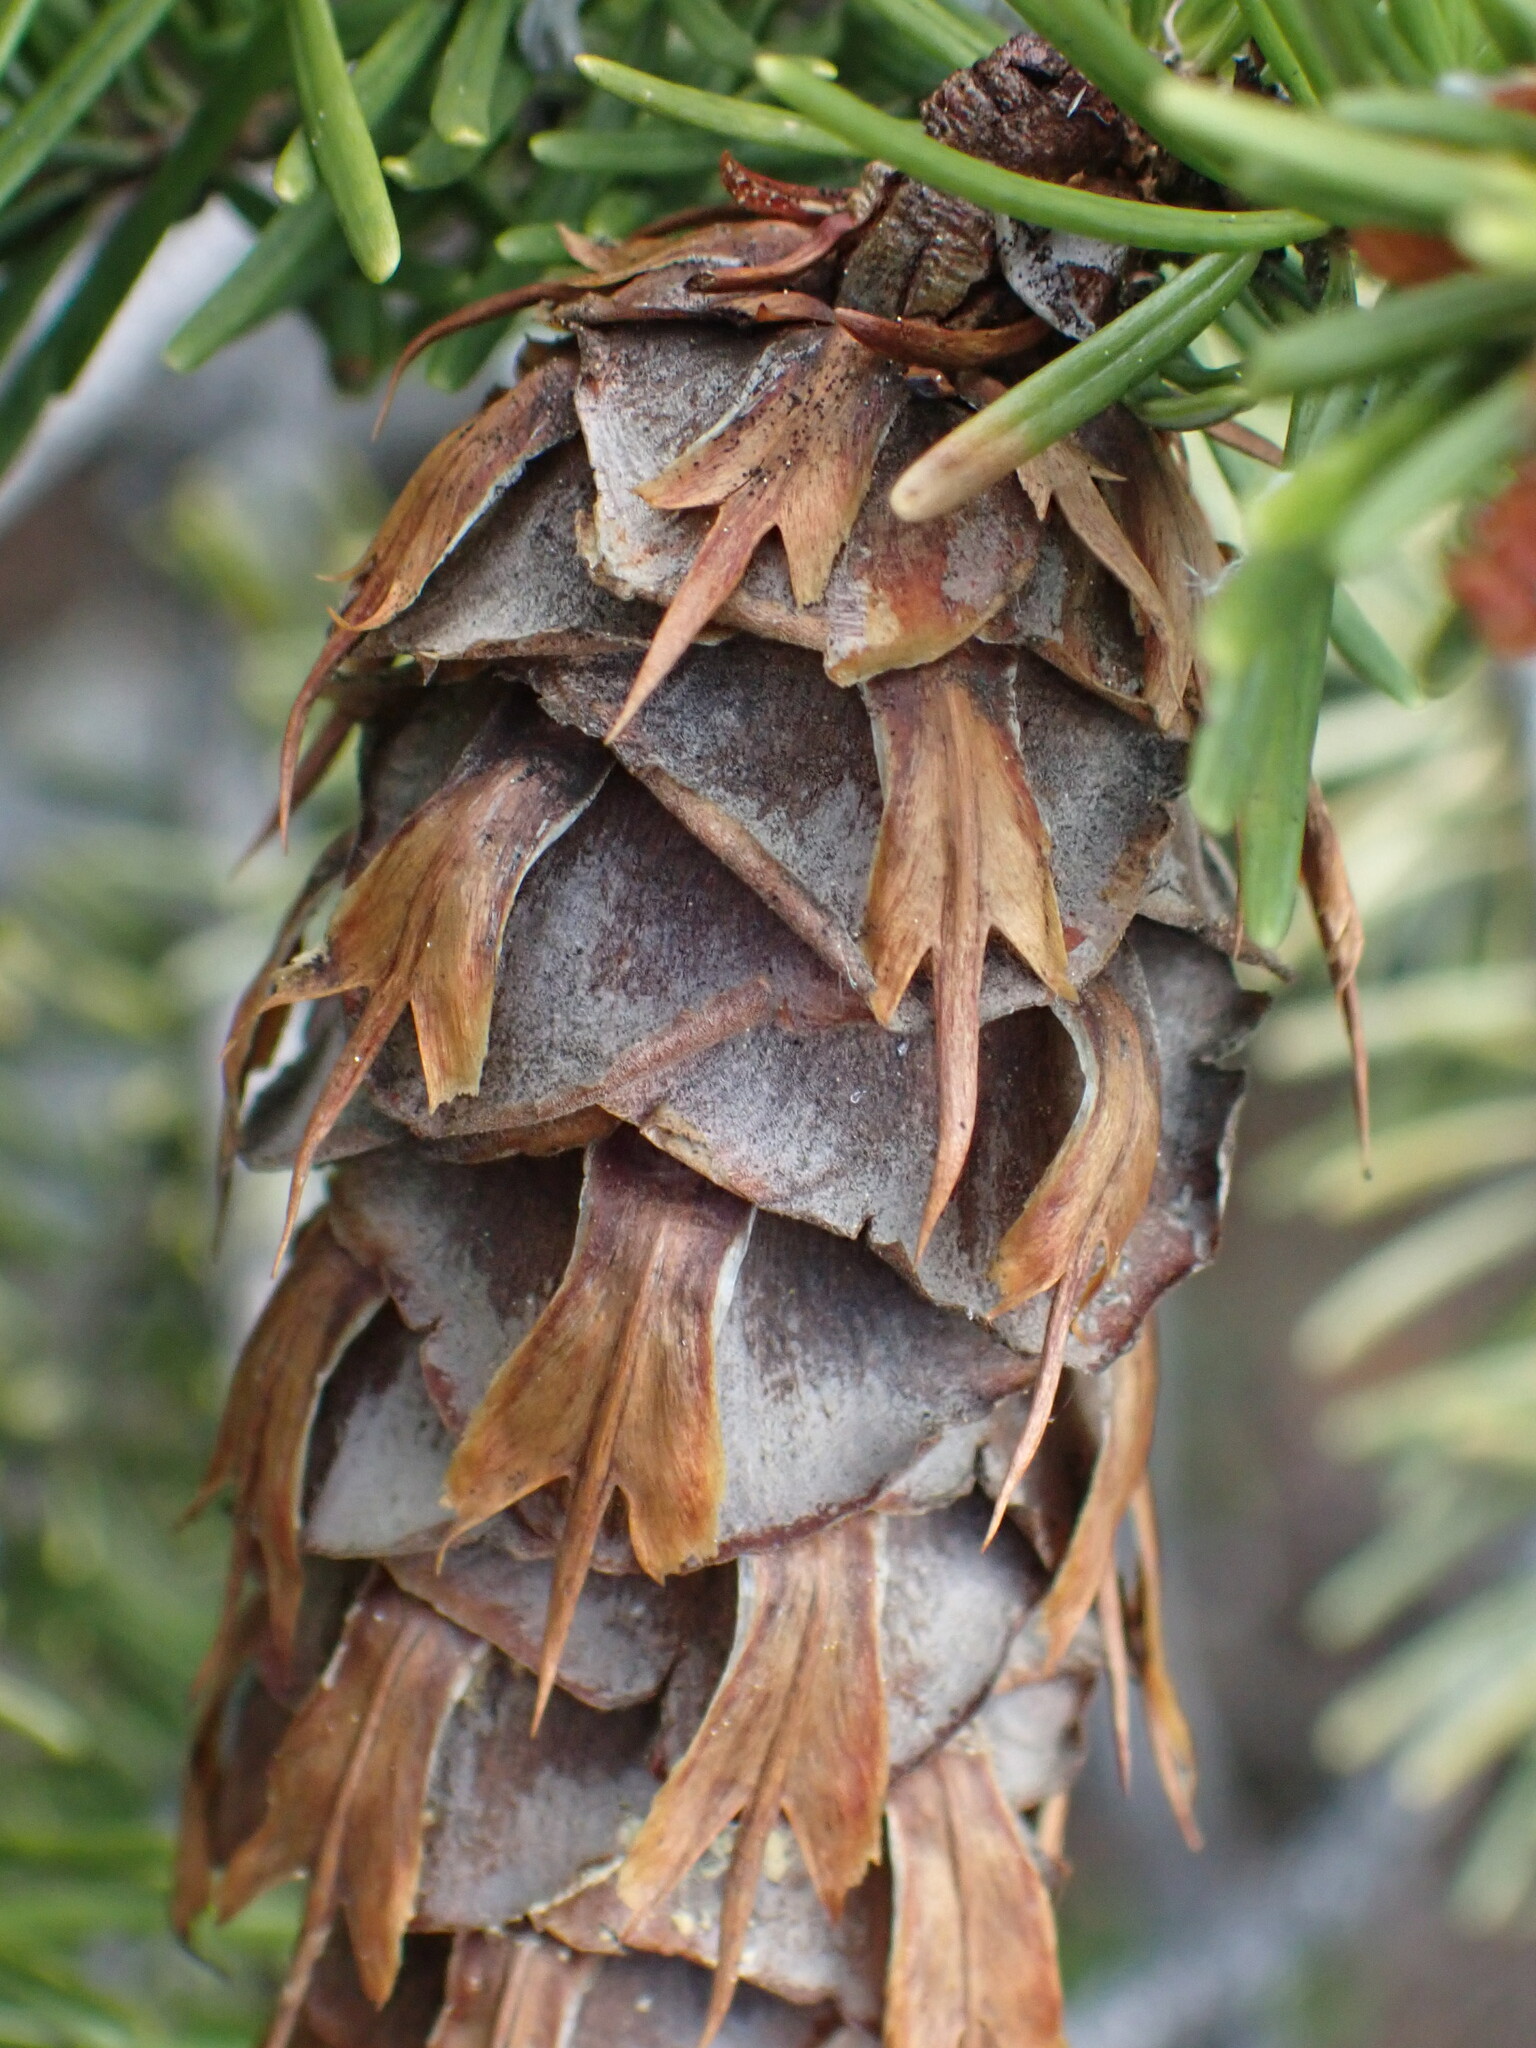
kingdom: Plantae
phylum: Tracheophyta
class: Pinopsida
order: Pinales
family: Pinaceae
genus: Pseudotsuga
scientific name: Pseudotsuga menziesii
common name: Douglas fir
